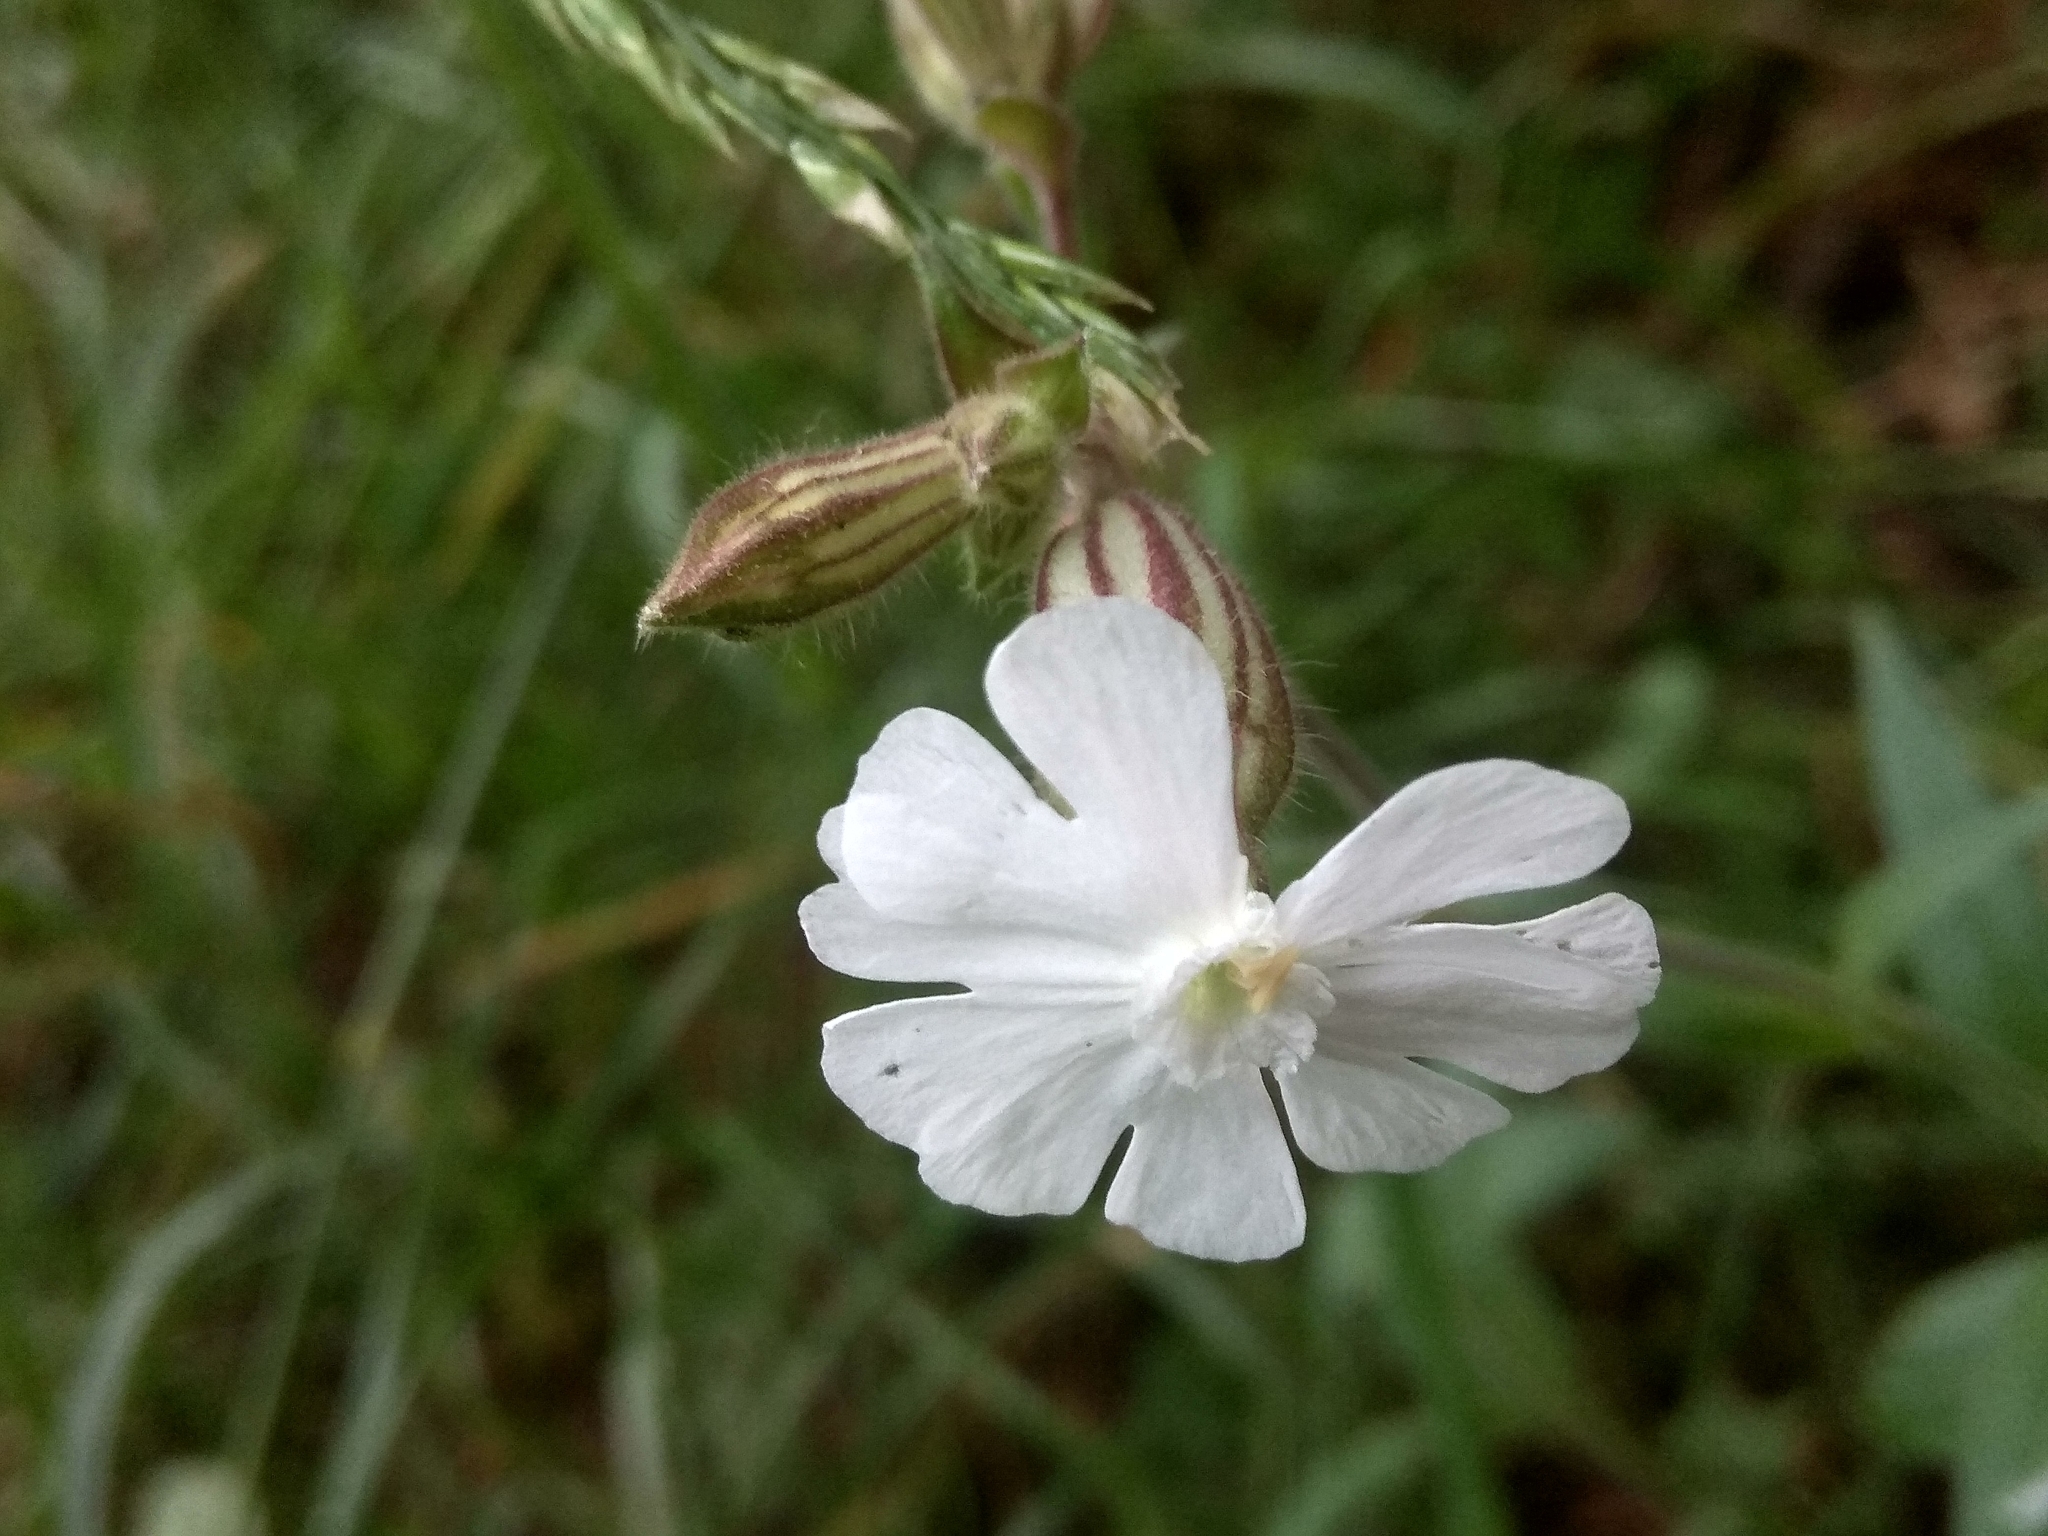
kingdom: Plantae
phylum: Tracheophyta
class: Magnoliopsida
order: Caryophyllales
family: Caryophyllaceae
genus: Silene
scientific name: Silene latifolia
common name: White campion
